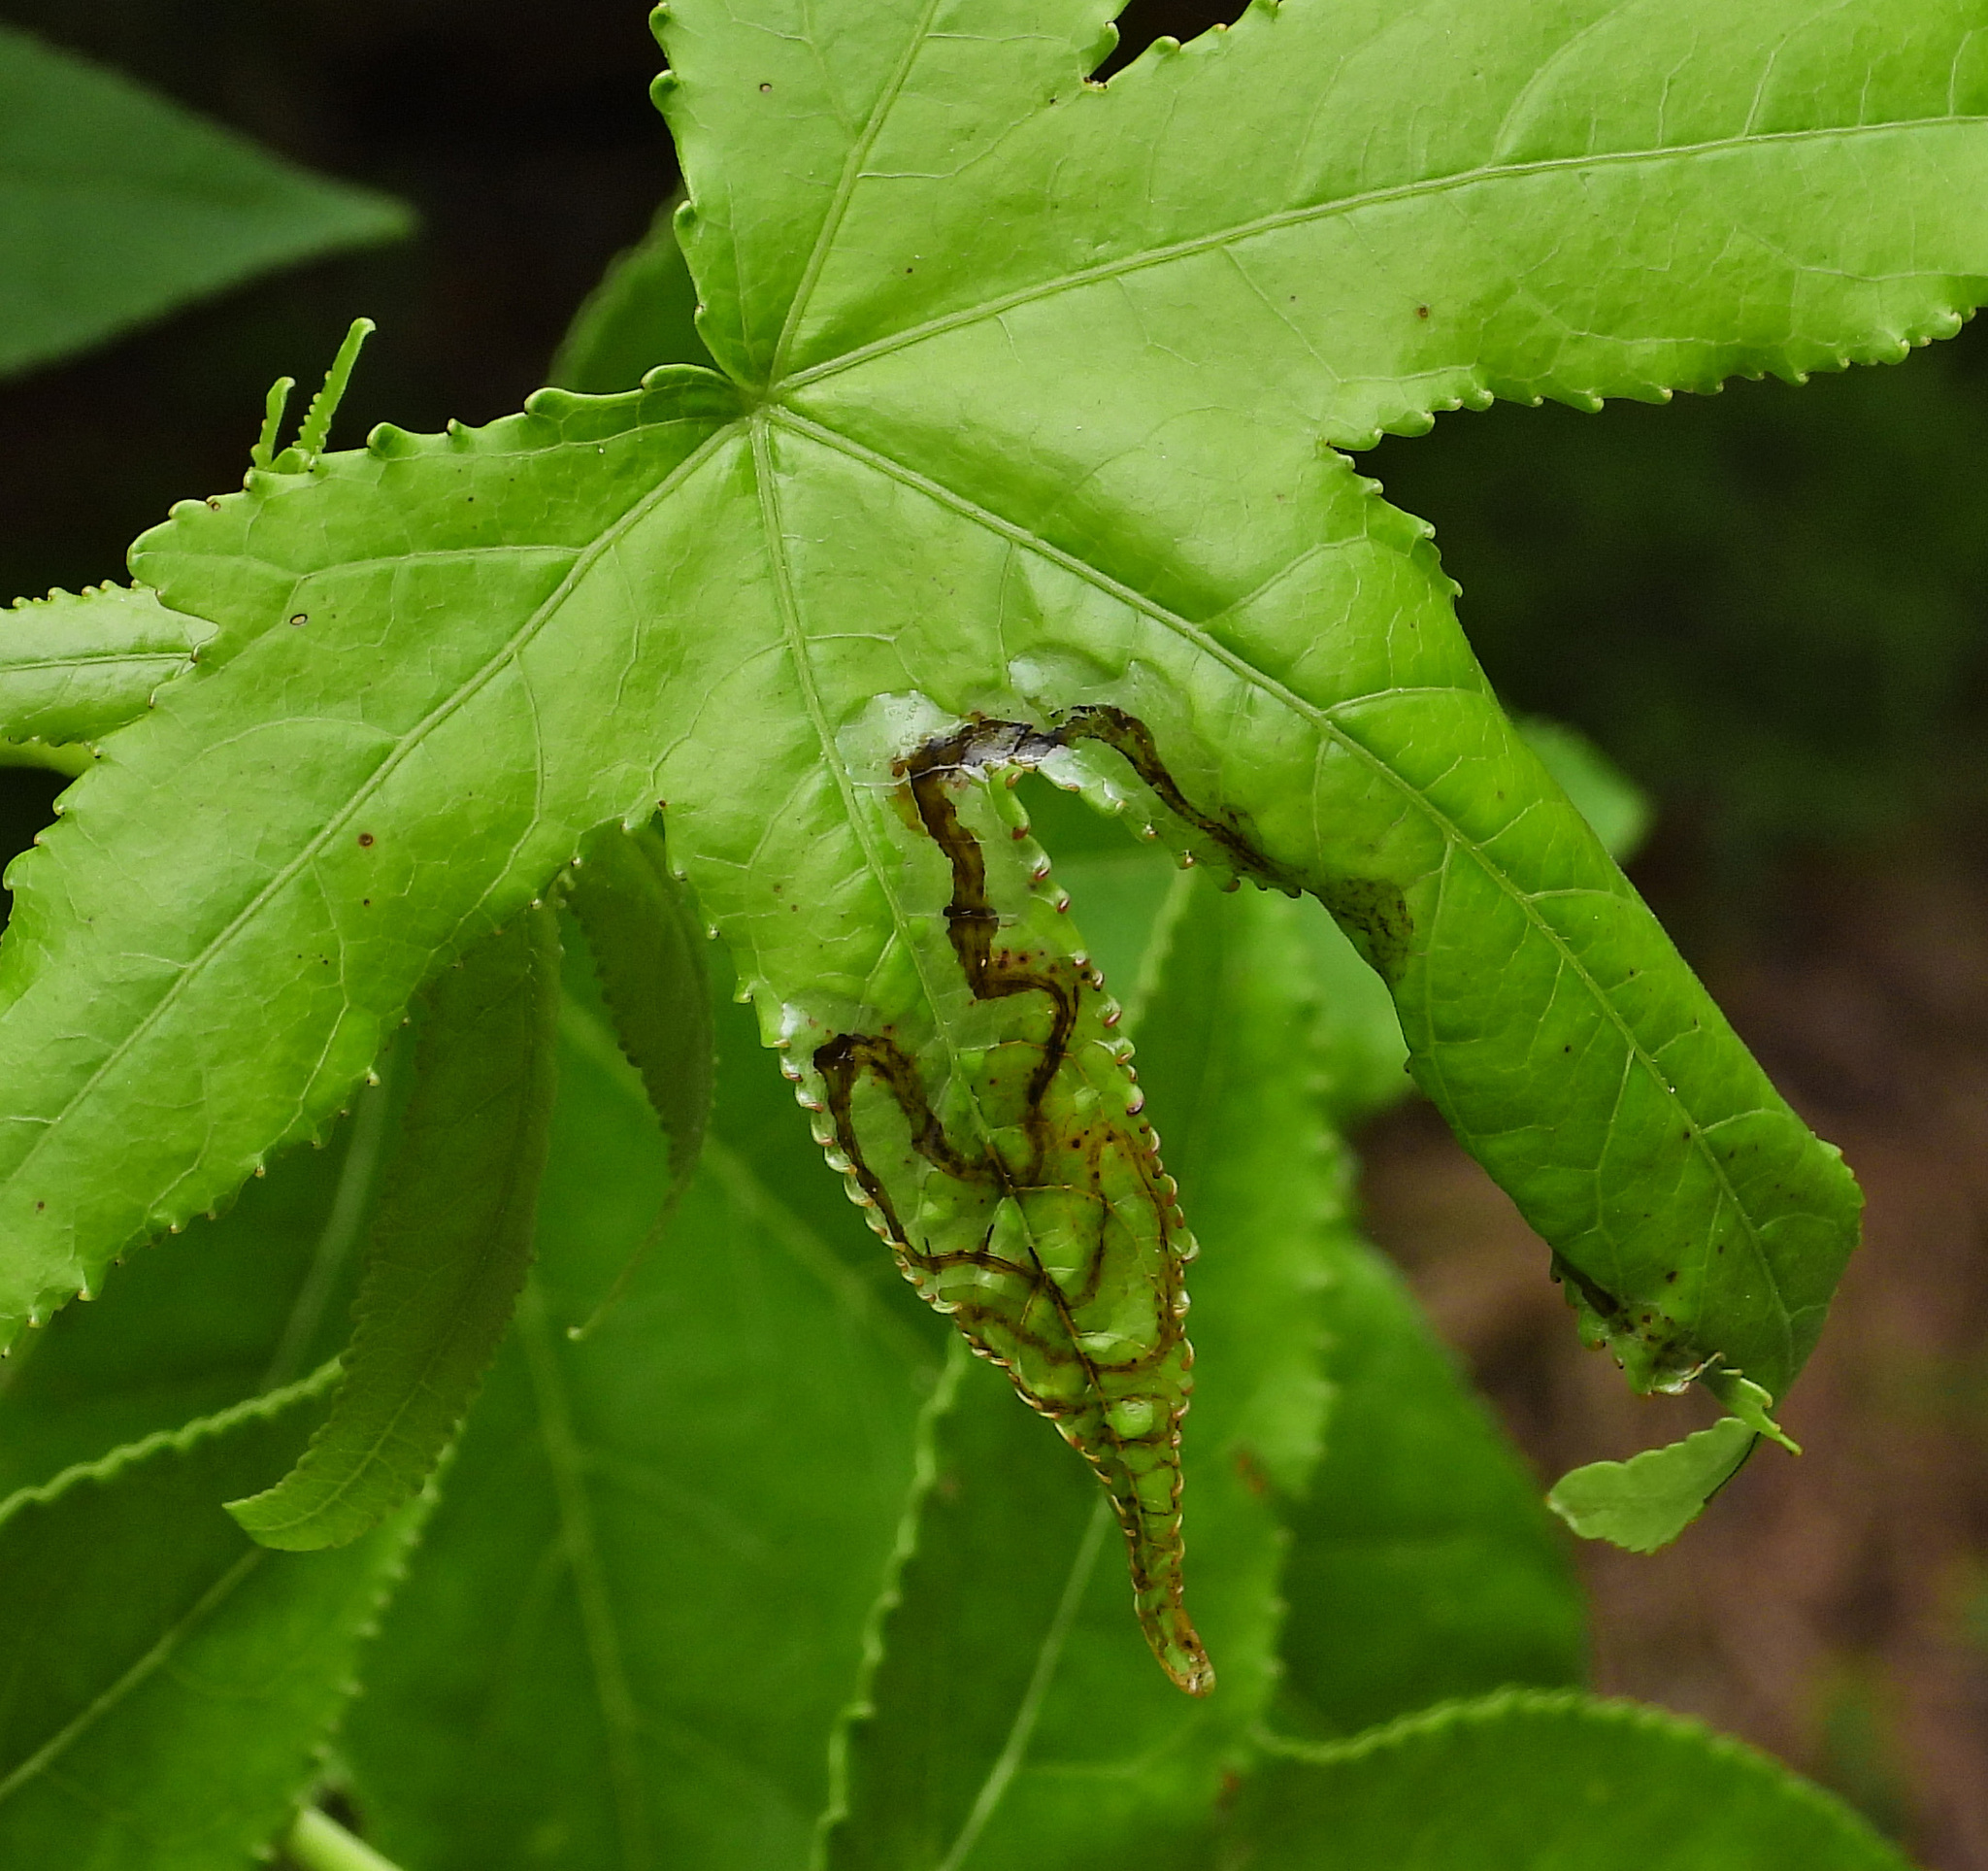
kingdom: Animalia
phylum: Arthropoda
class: Insecta
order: Lepidoptera
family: Gracillariidae
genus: Phyllocnistis
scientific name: Phyllocnistis liquidambarisella
